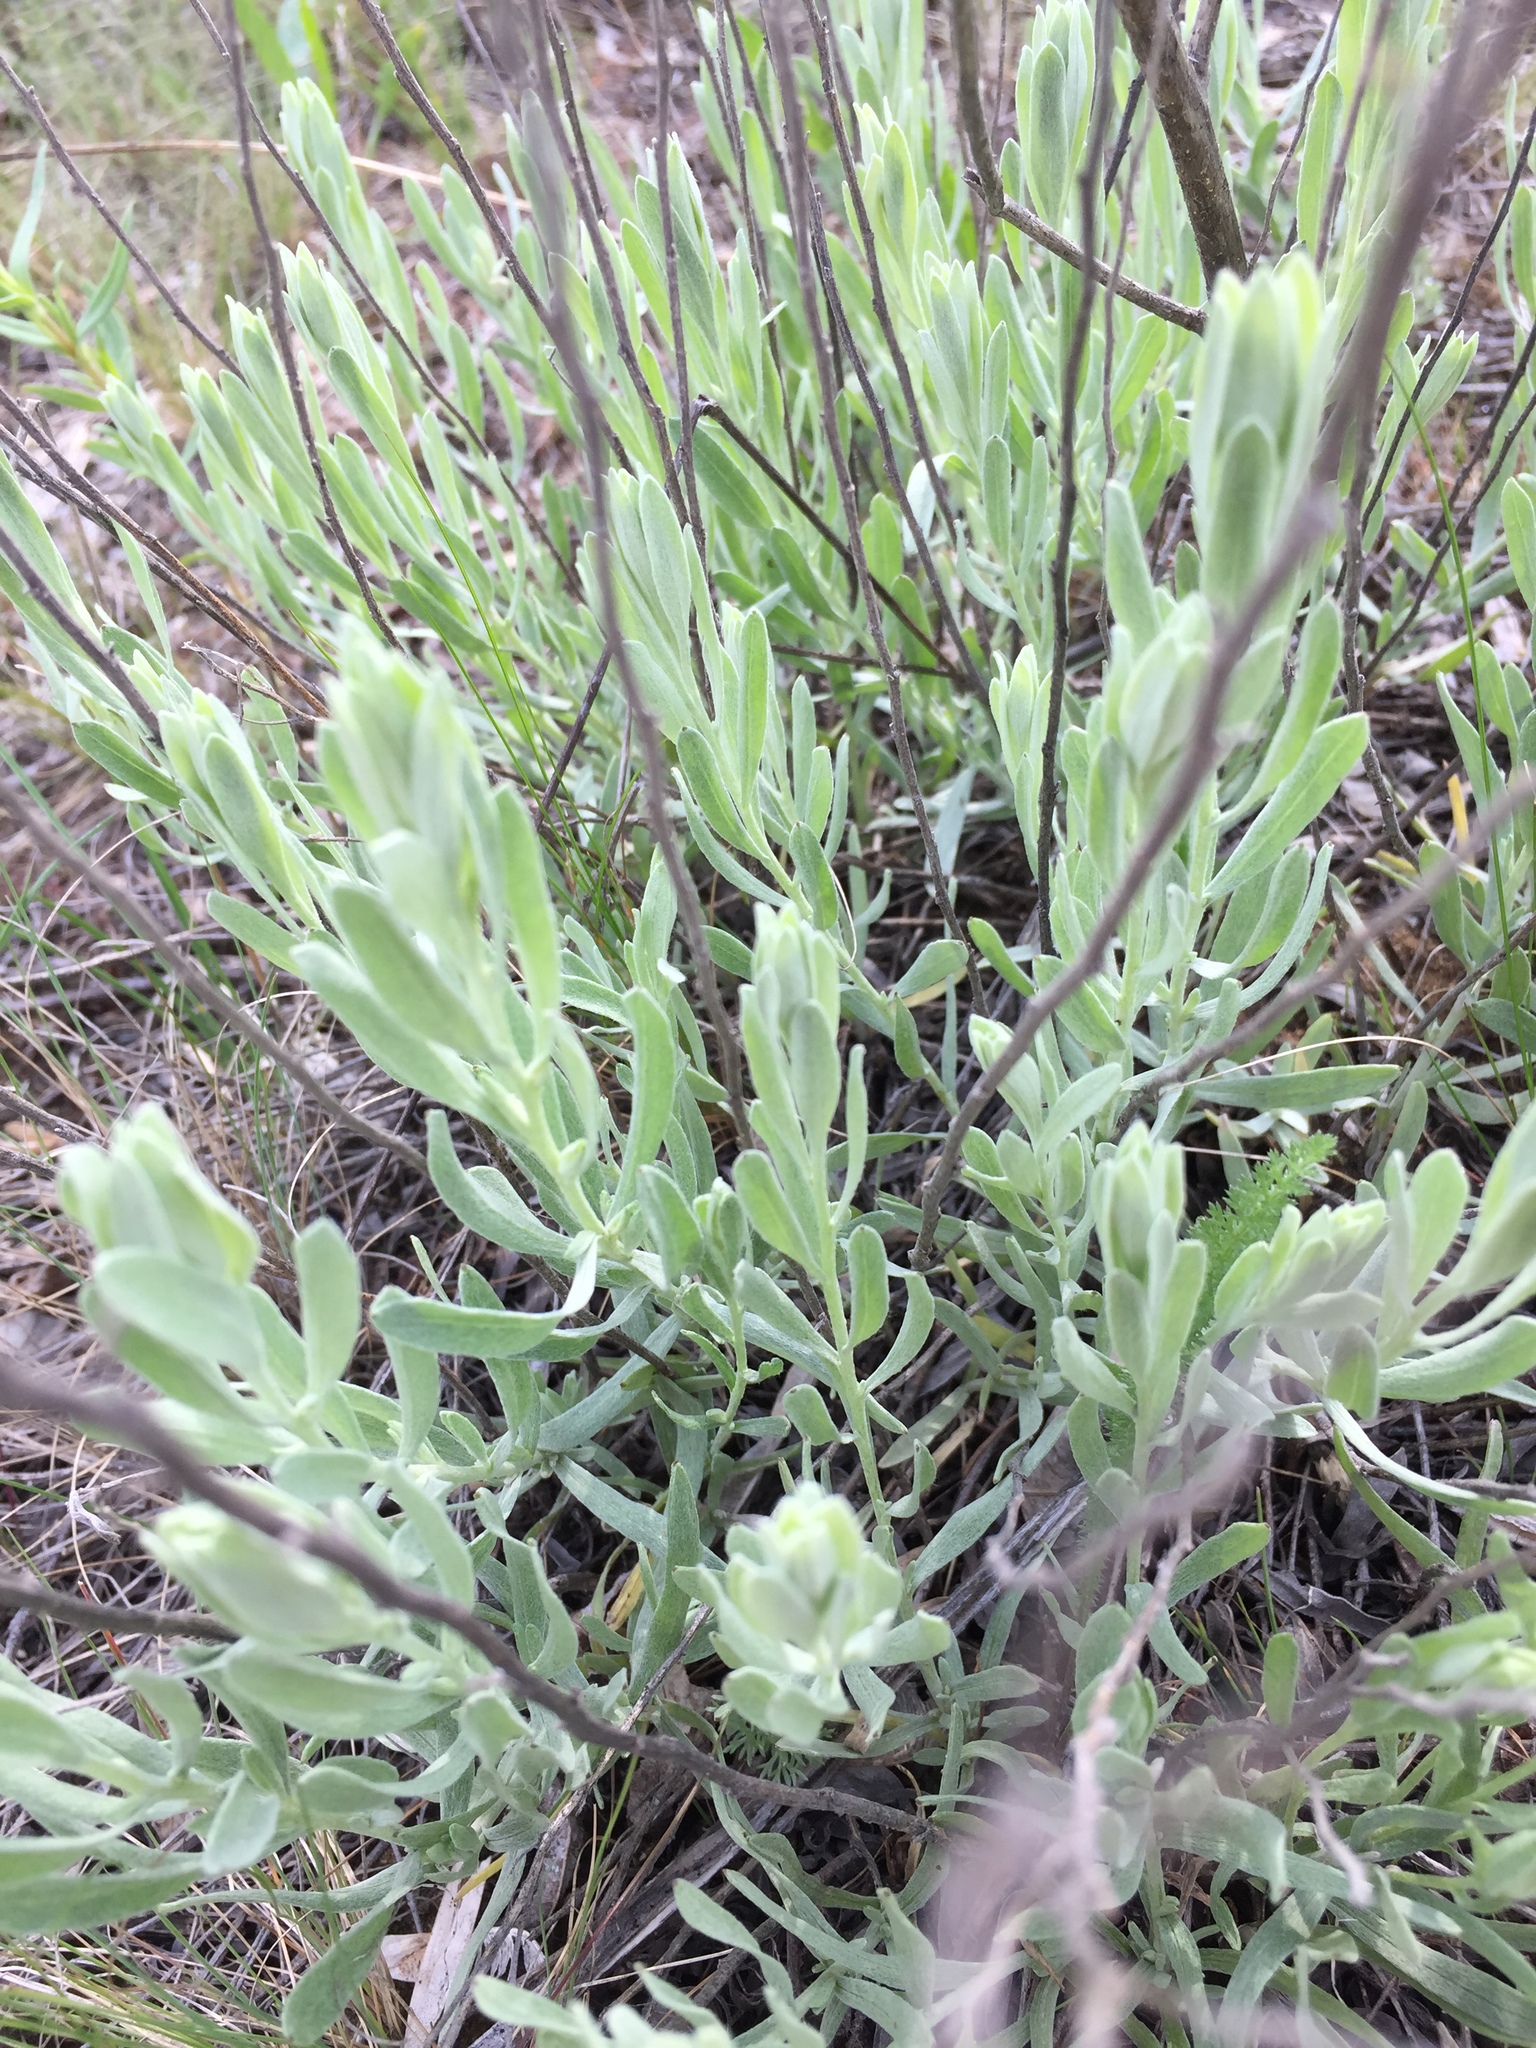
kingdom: Plantae
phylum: Tracheophyta
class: Magnoliopsida
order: Asterales
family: Asteraceae
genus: Helichrysum
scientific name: Helichrysum arenarium
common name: Strawflower
